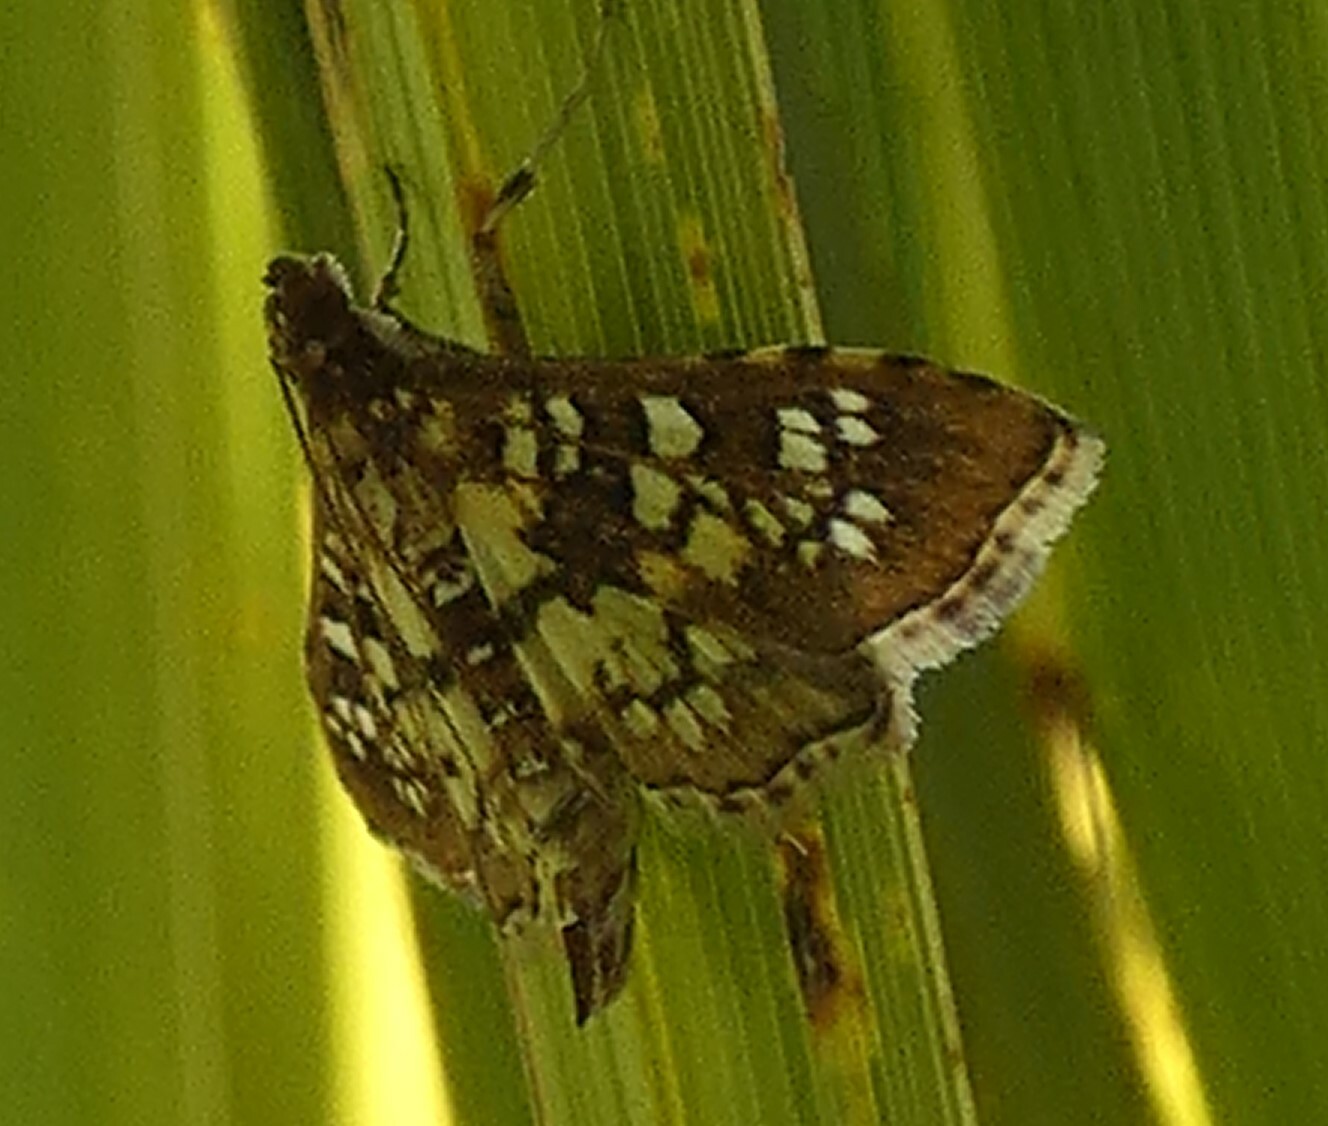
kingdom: Animalia
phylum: Arthropoda
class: Insecta
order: Lepidoptera
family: Crambidae
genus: Samea
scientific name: Samea ecclesialis
